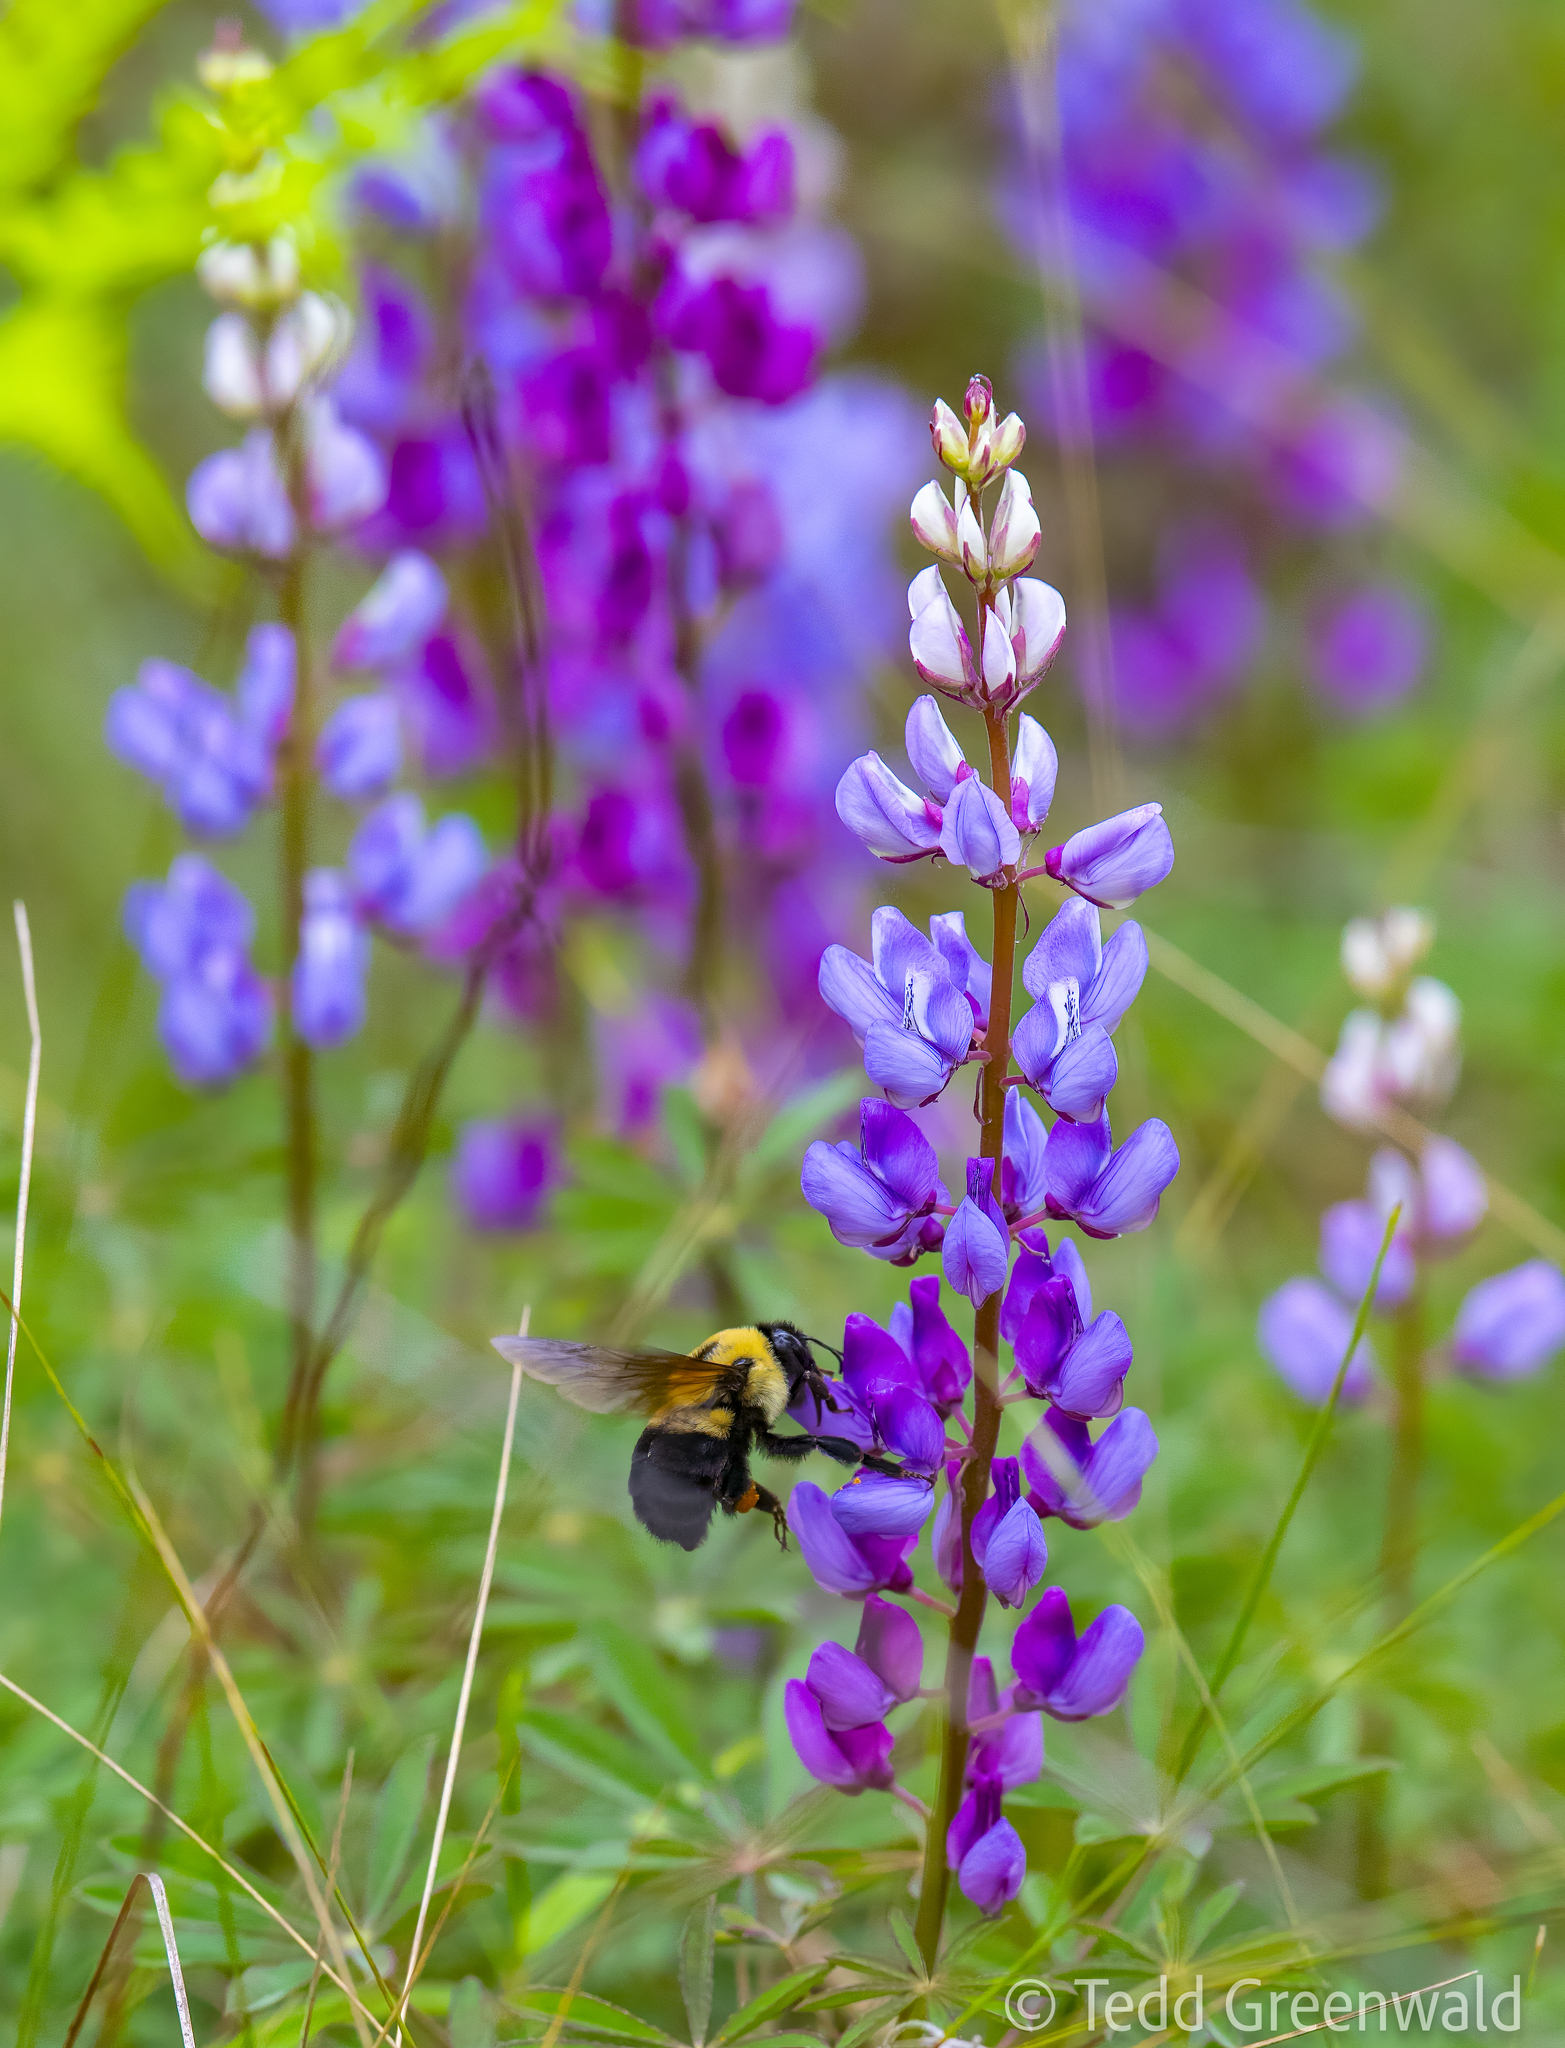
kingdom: Animalia
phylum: Arthropoda
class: Insecta
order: Hymenoptera
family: Apidae
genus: Bombus
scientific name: Bombus griseocollis
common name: Brown-belted bumble bee
